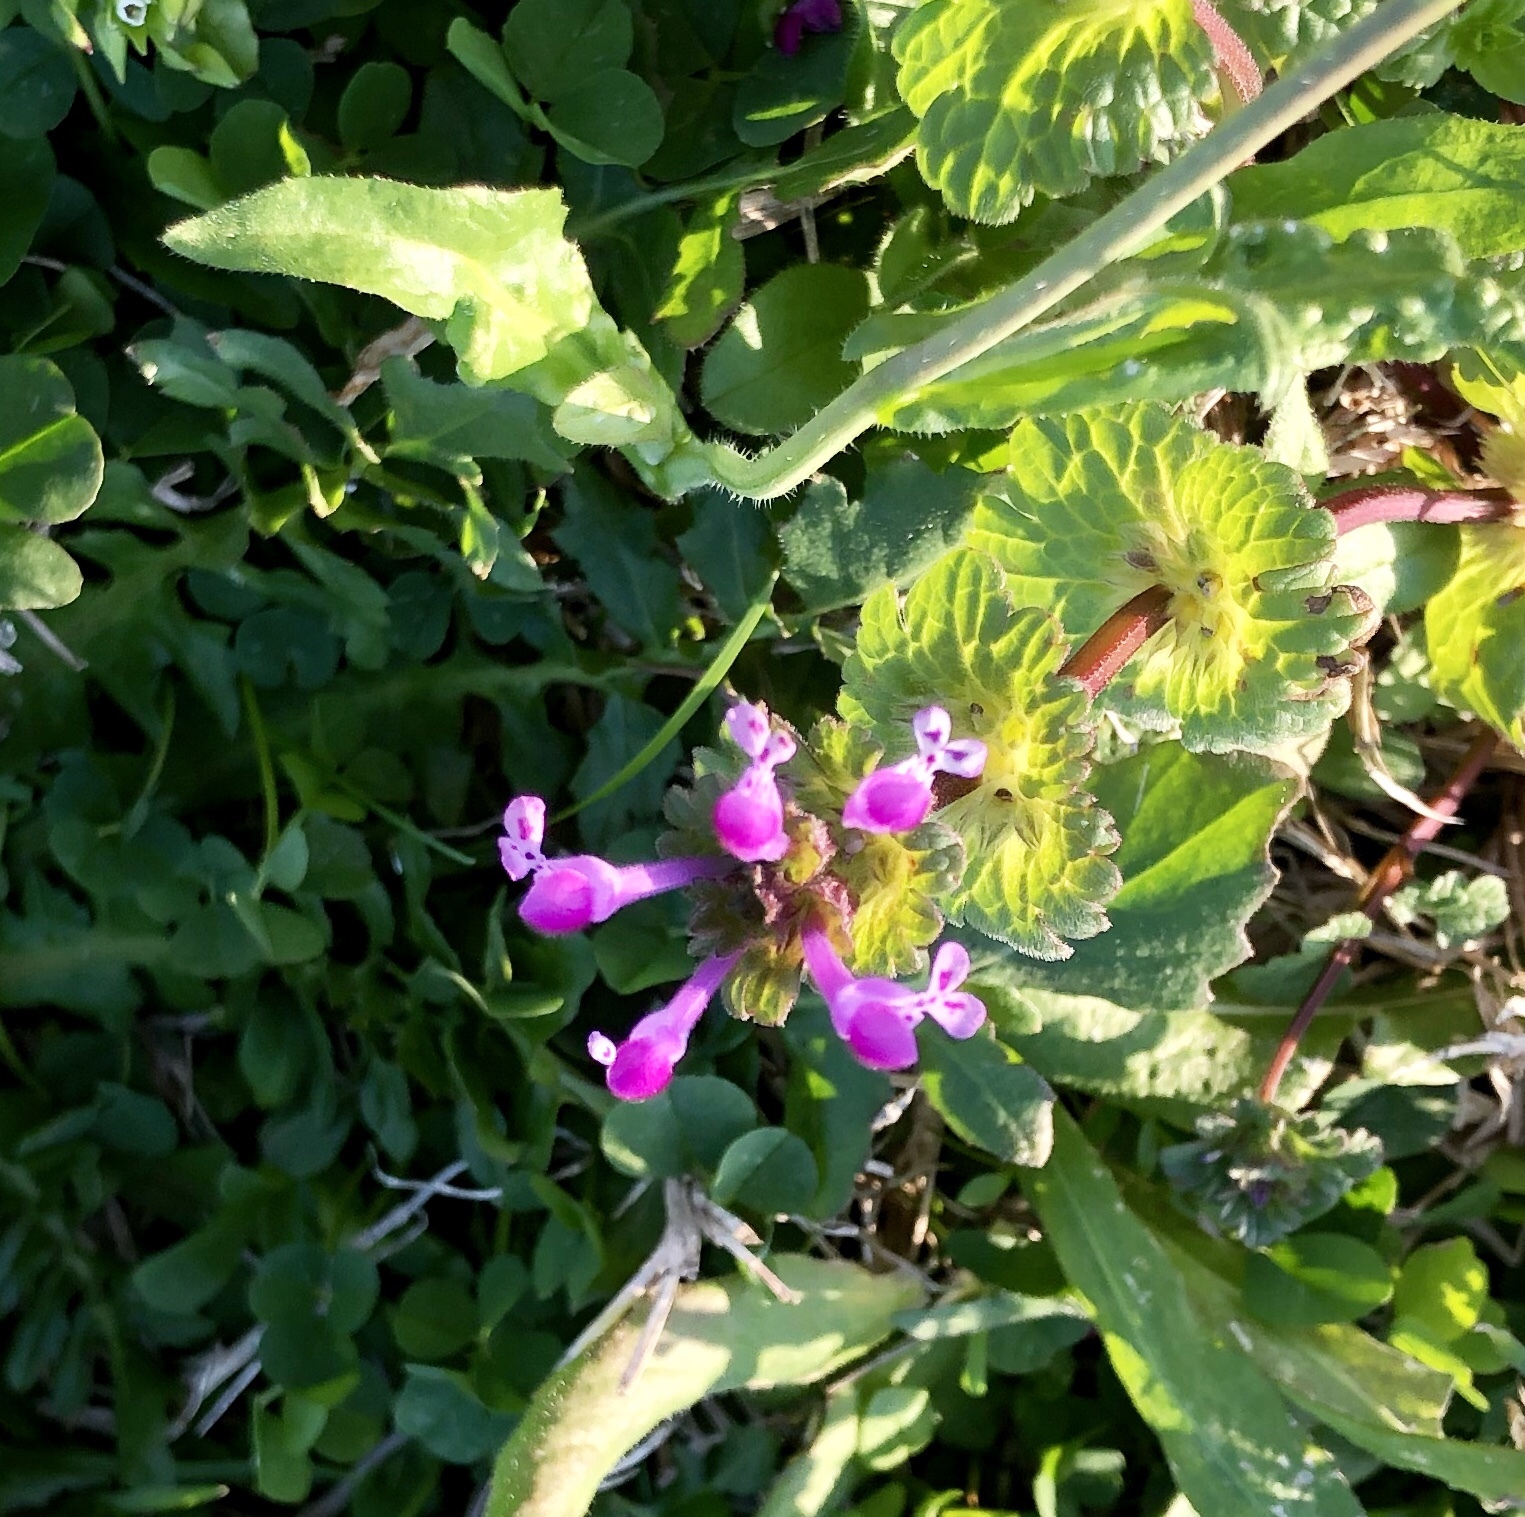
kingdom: Plantae
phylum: Tracheophyta
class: Magnoliopsida
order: Lamiales
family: Lamiaceae
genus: Lamium
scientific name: Lamium amplexicaule
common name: Henbit dead-nettle
